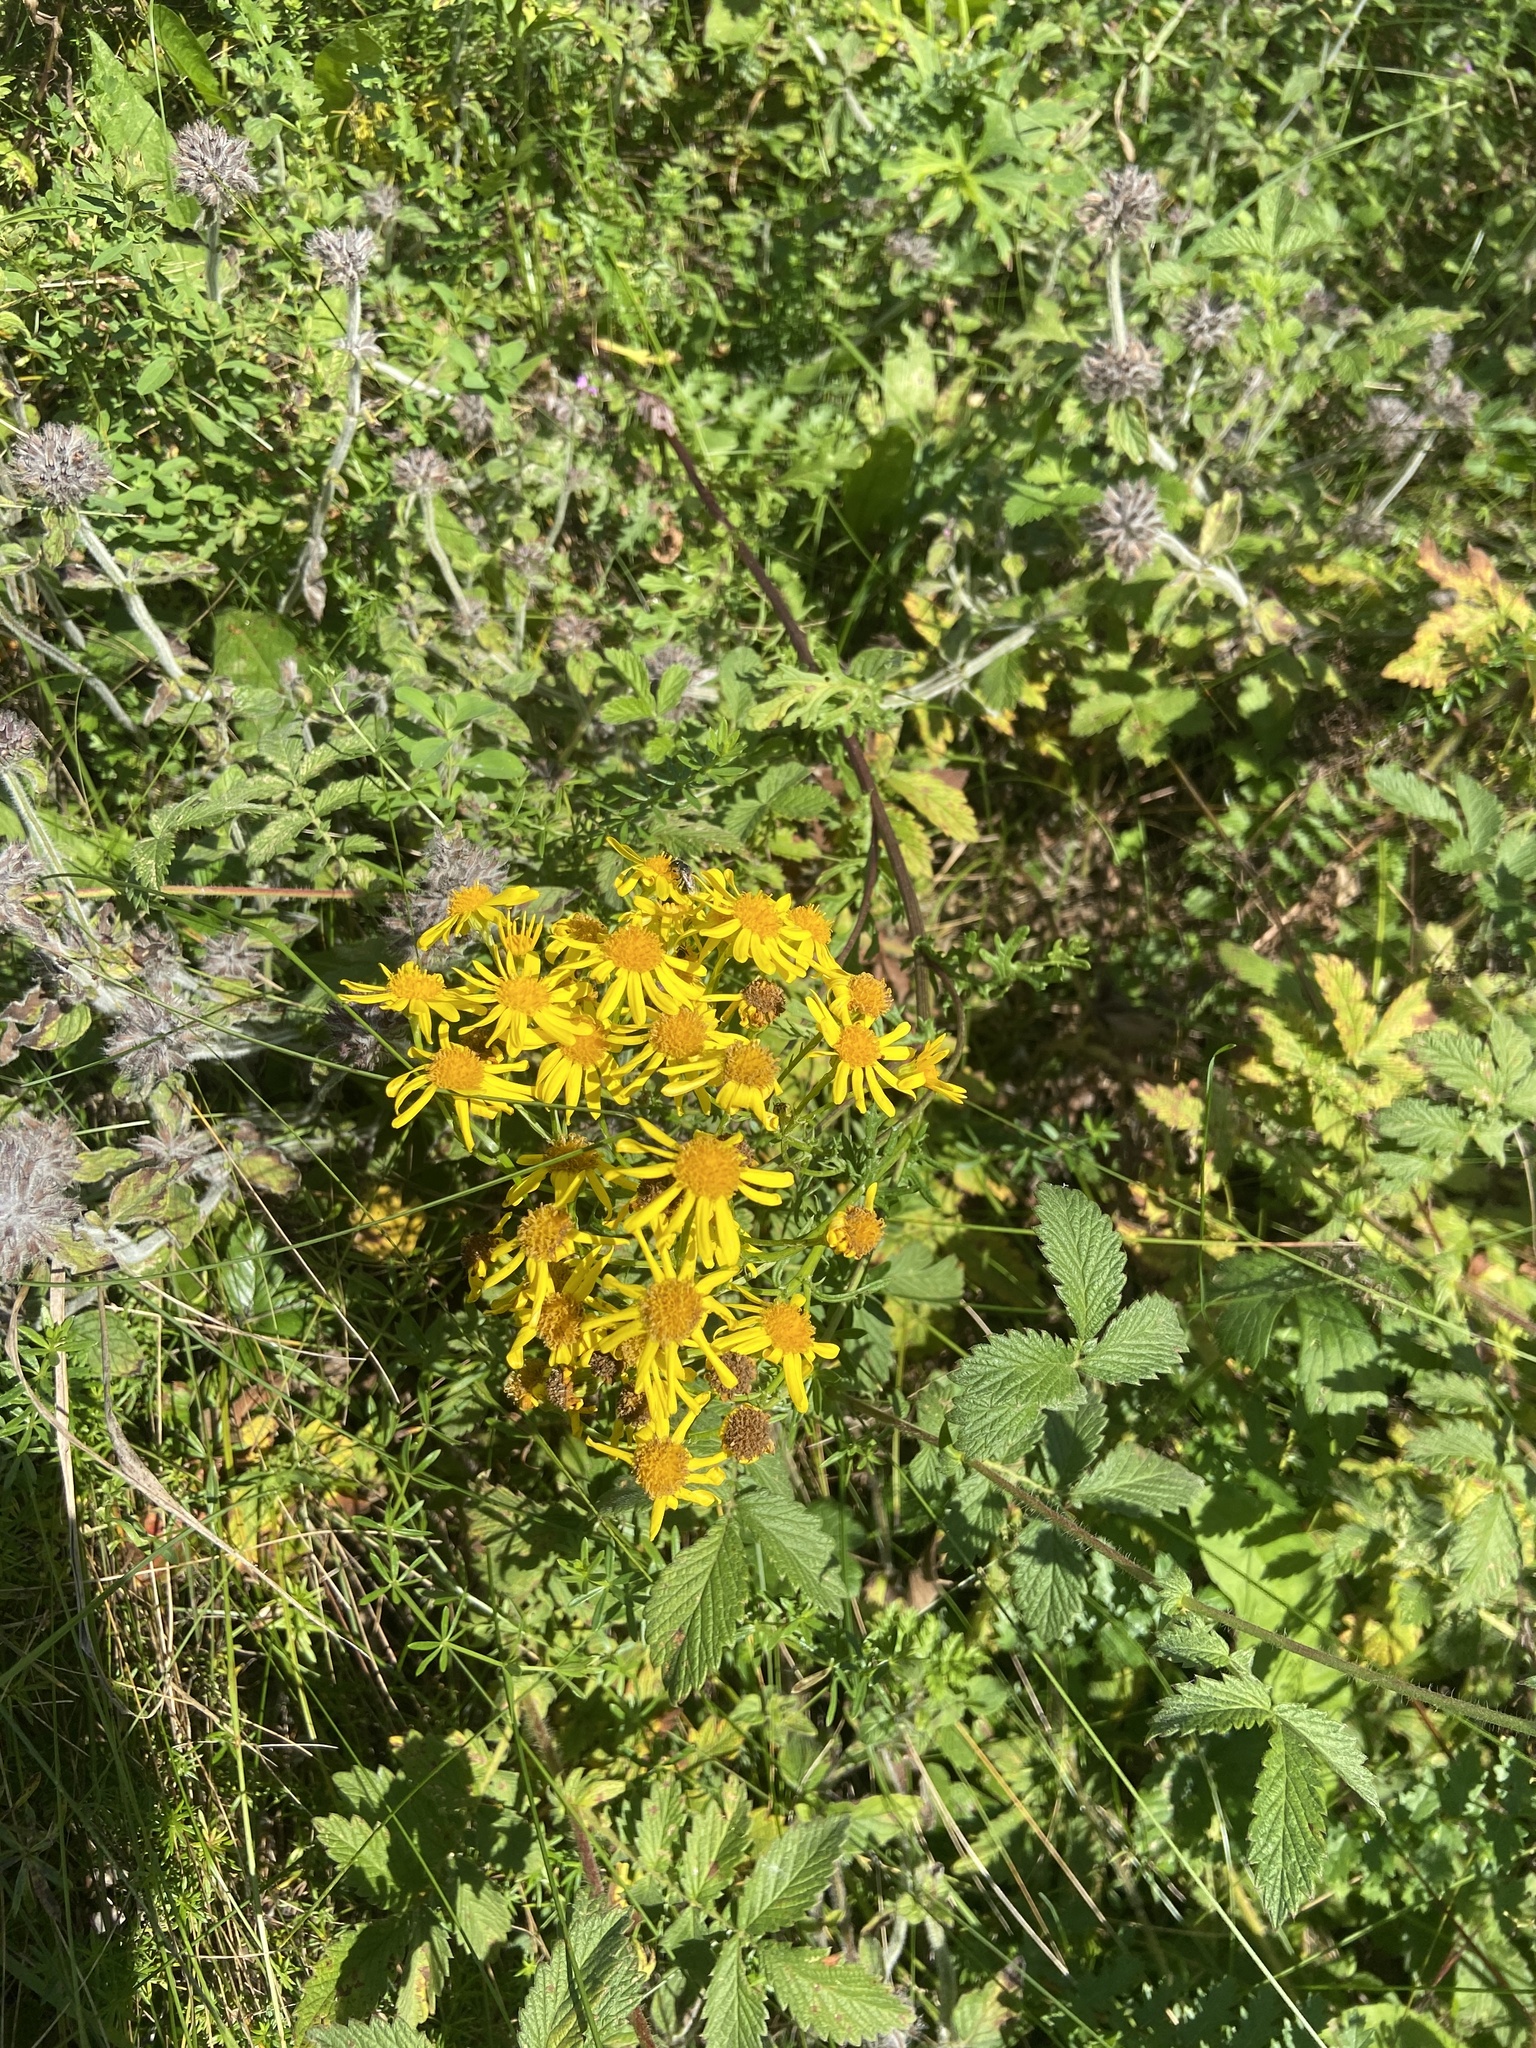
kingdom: Plantae
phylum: Tracheophyta
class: Magnoliopsida
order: Asterales
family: Asteraceae
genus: Jacobaea
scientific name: Jacobaea vulgaris
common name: Stinking willie
